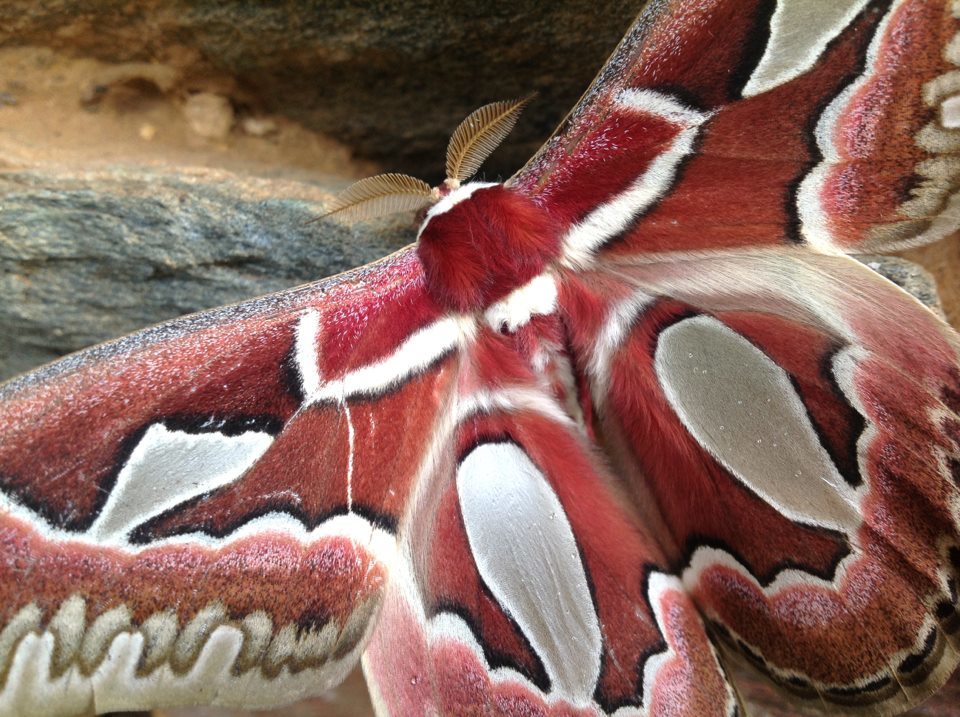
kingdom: Animalia
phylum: Arthropoda
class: Insecta
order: Lepidoptera
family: Saturniidae
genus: Rothschildia
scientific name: Rothschildia jacobaeae
